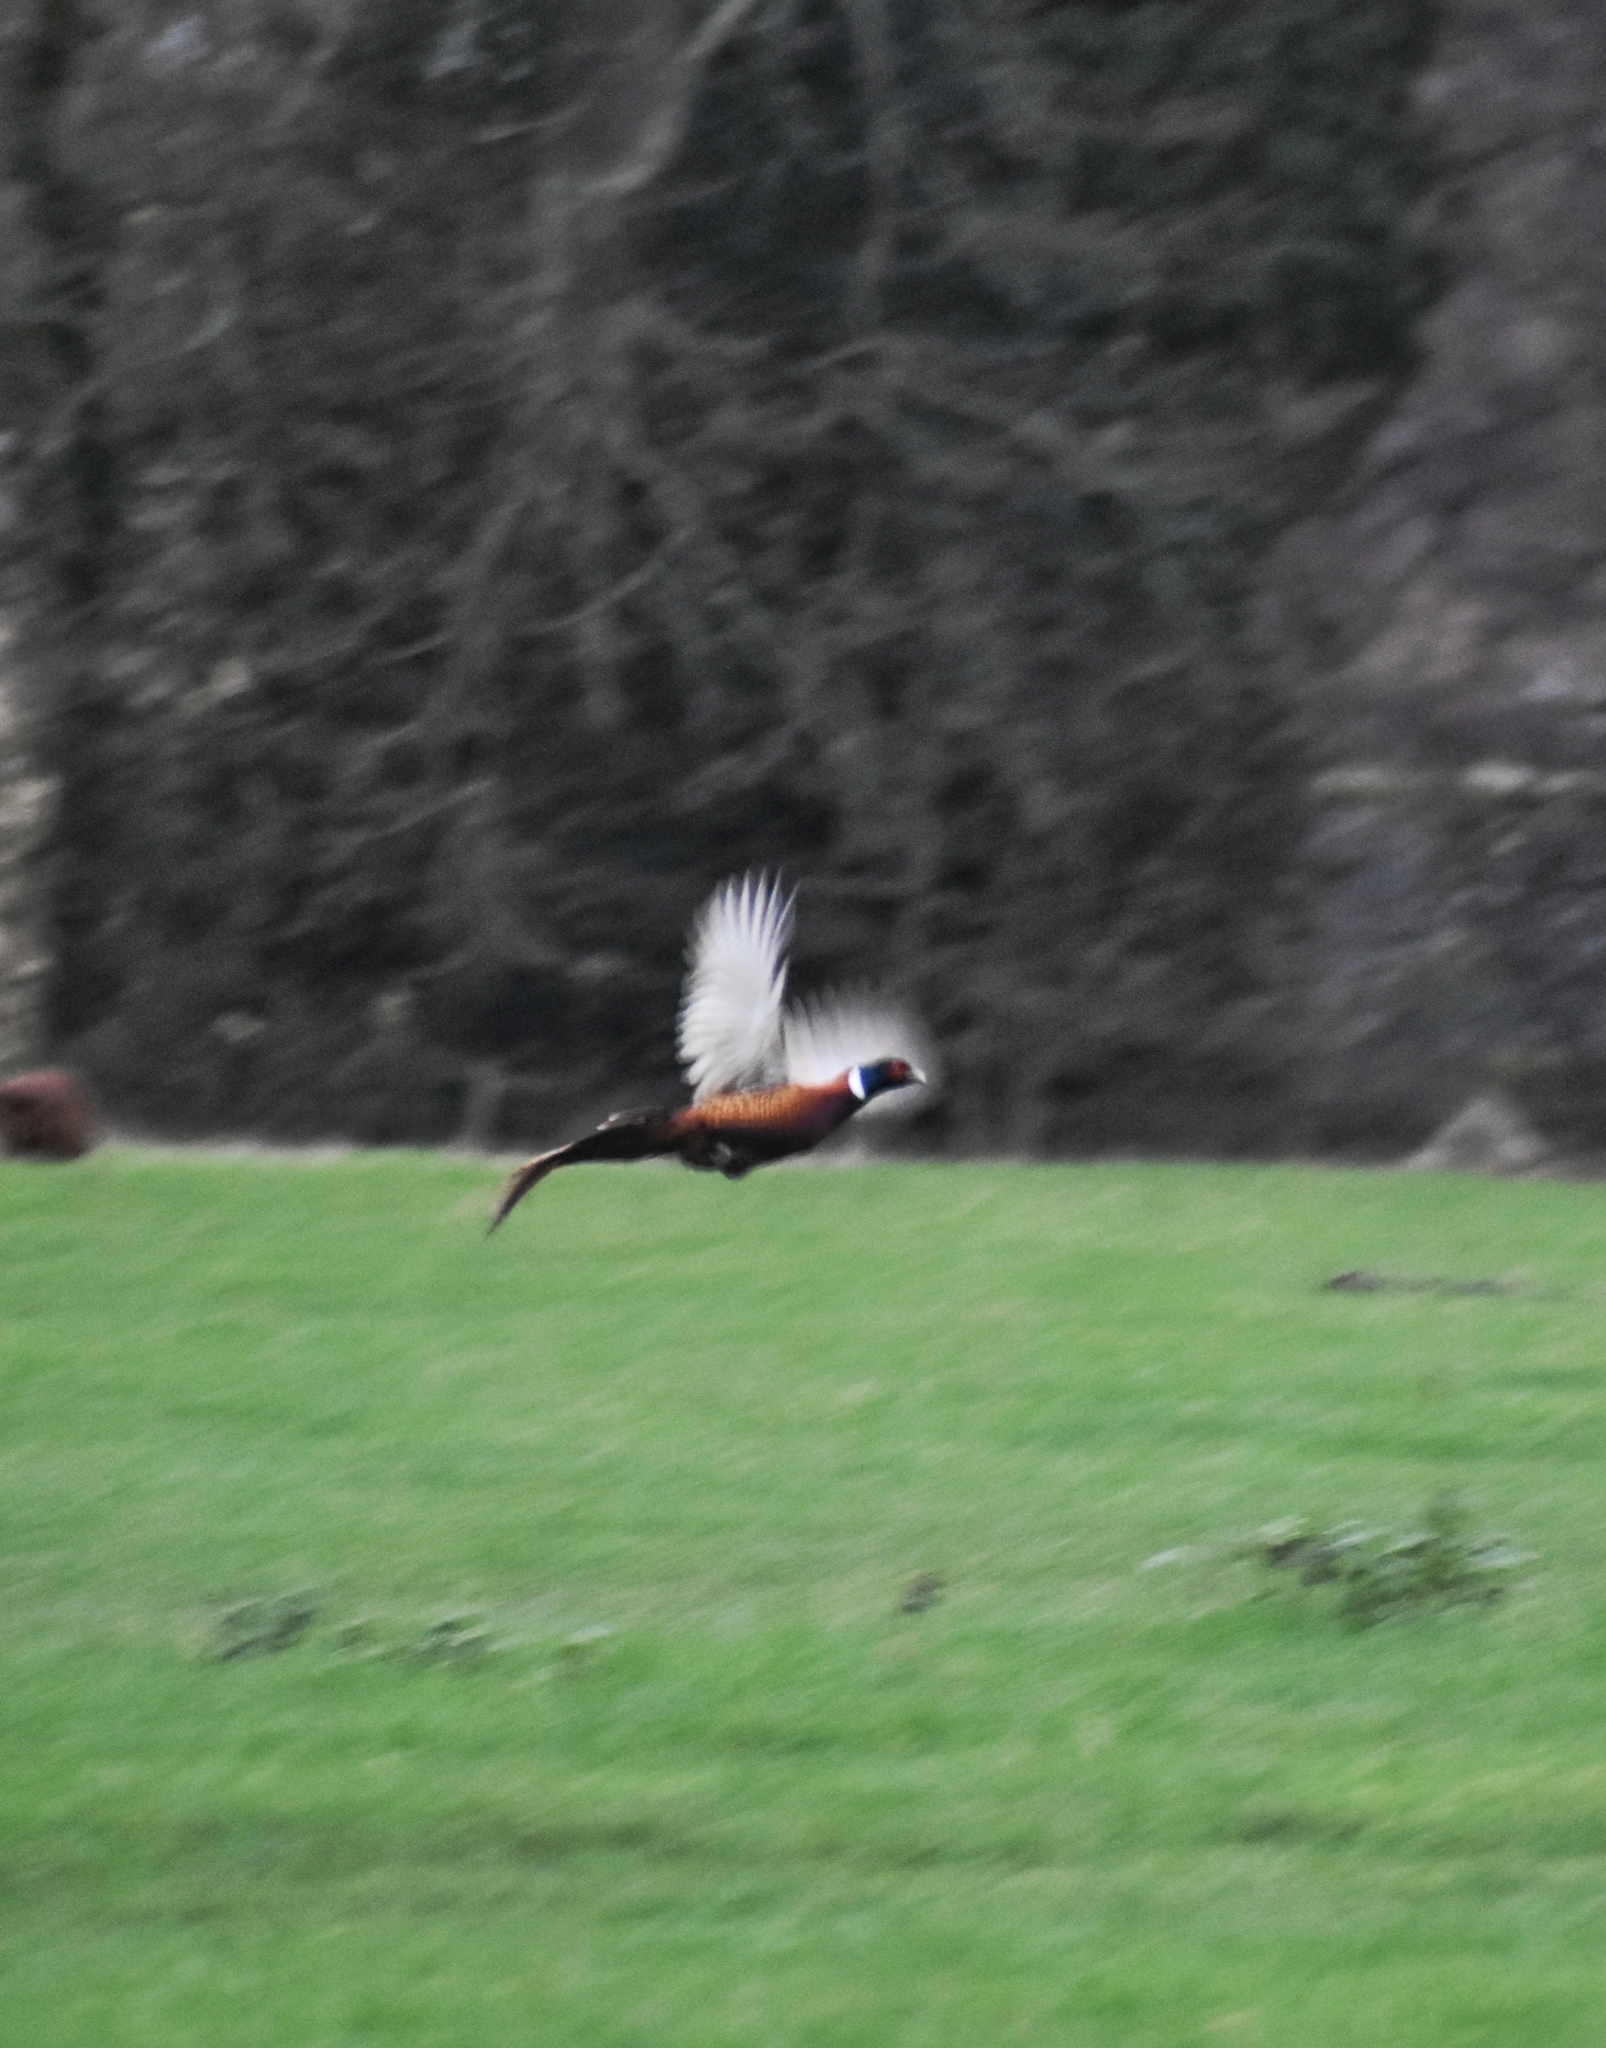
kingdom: Animalia
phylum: Chordata
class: Aves
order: Galliformes
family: Phasianidae
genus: Phasianus
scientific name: Phasianus colchicus
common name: Common pheasant
